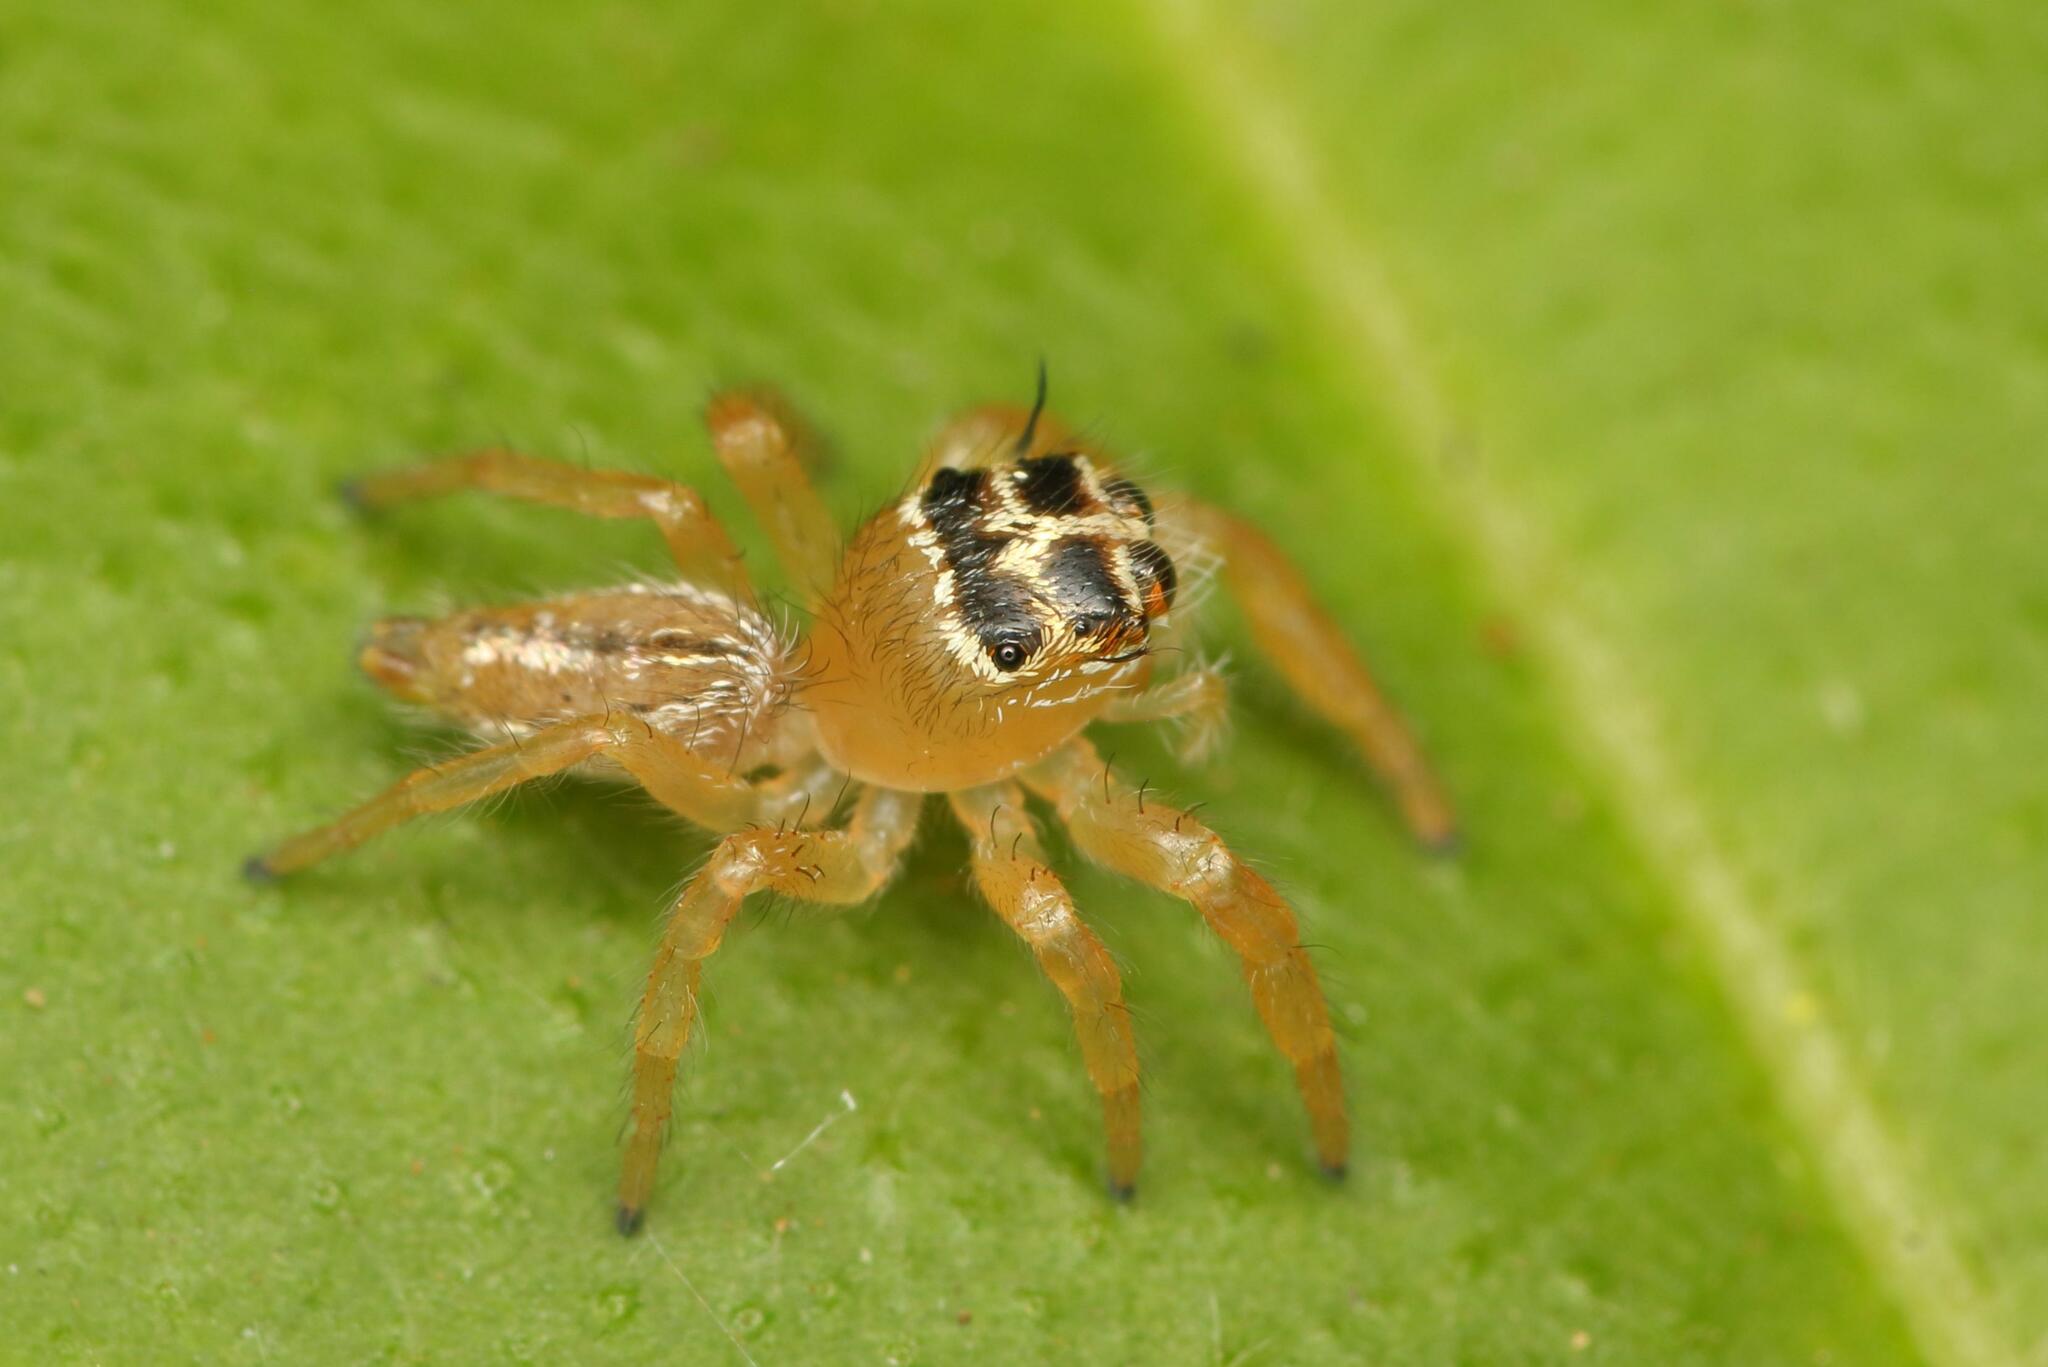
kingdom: Animalia
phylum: Arthropoda
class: Arachnida
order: Araneae
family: Salticidae
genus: Thyene
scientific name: Thyene inflata
